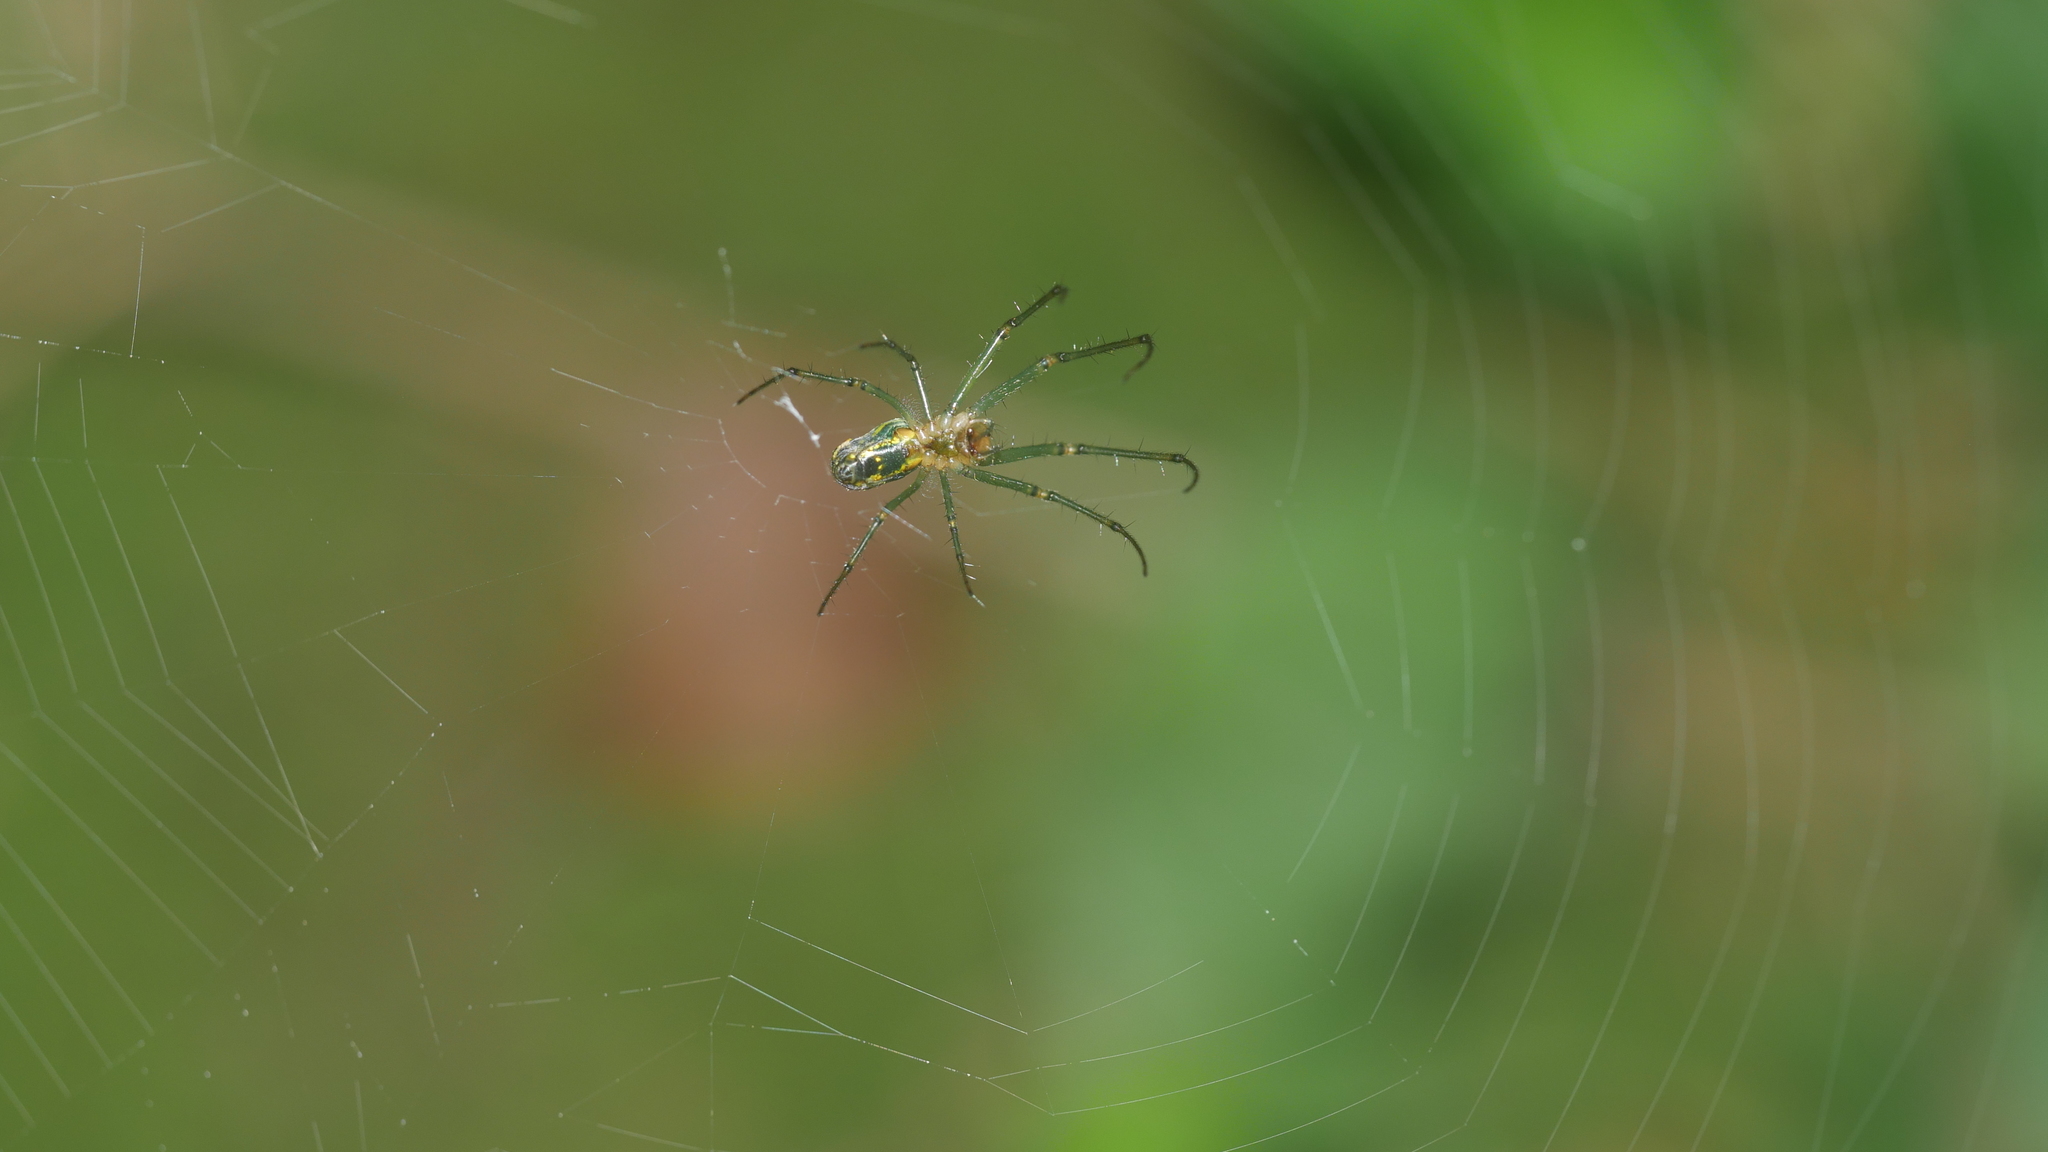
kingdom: Animalia
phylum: Arthropoda
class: Arachnida
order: Araneae
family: Tetragnathidae
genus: Leucauge
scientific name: Leucauge venusta
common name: Longjawed orb weavers
